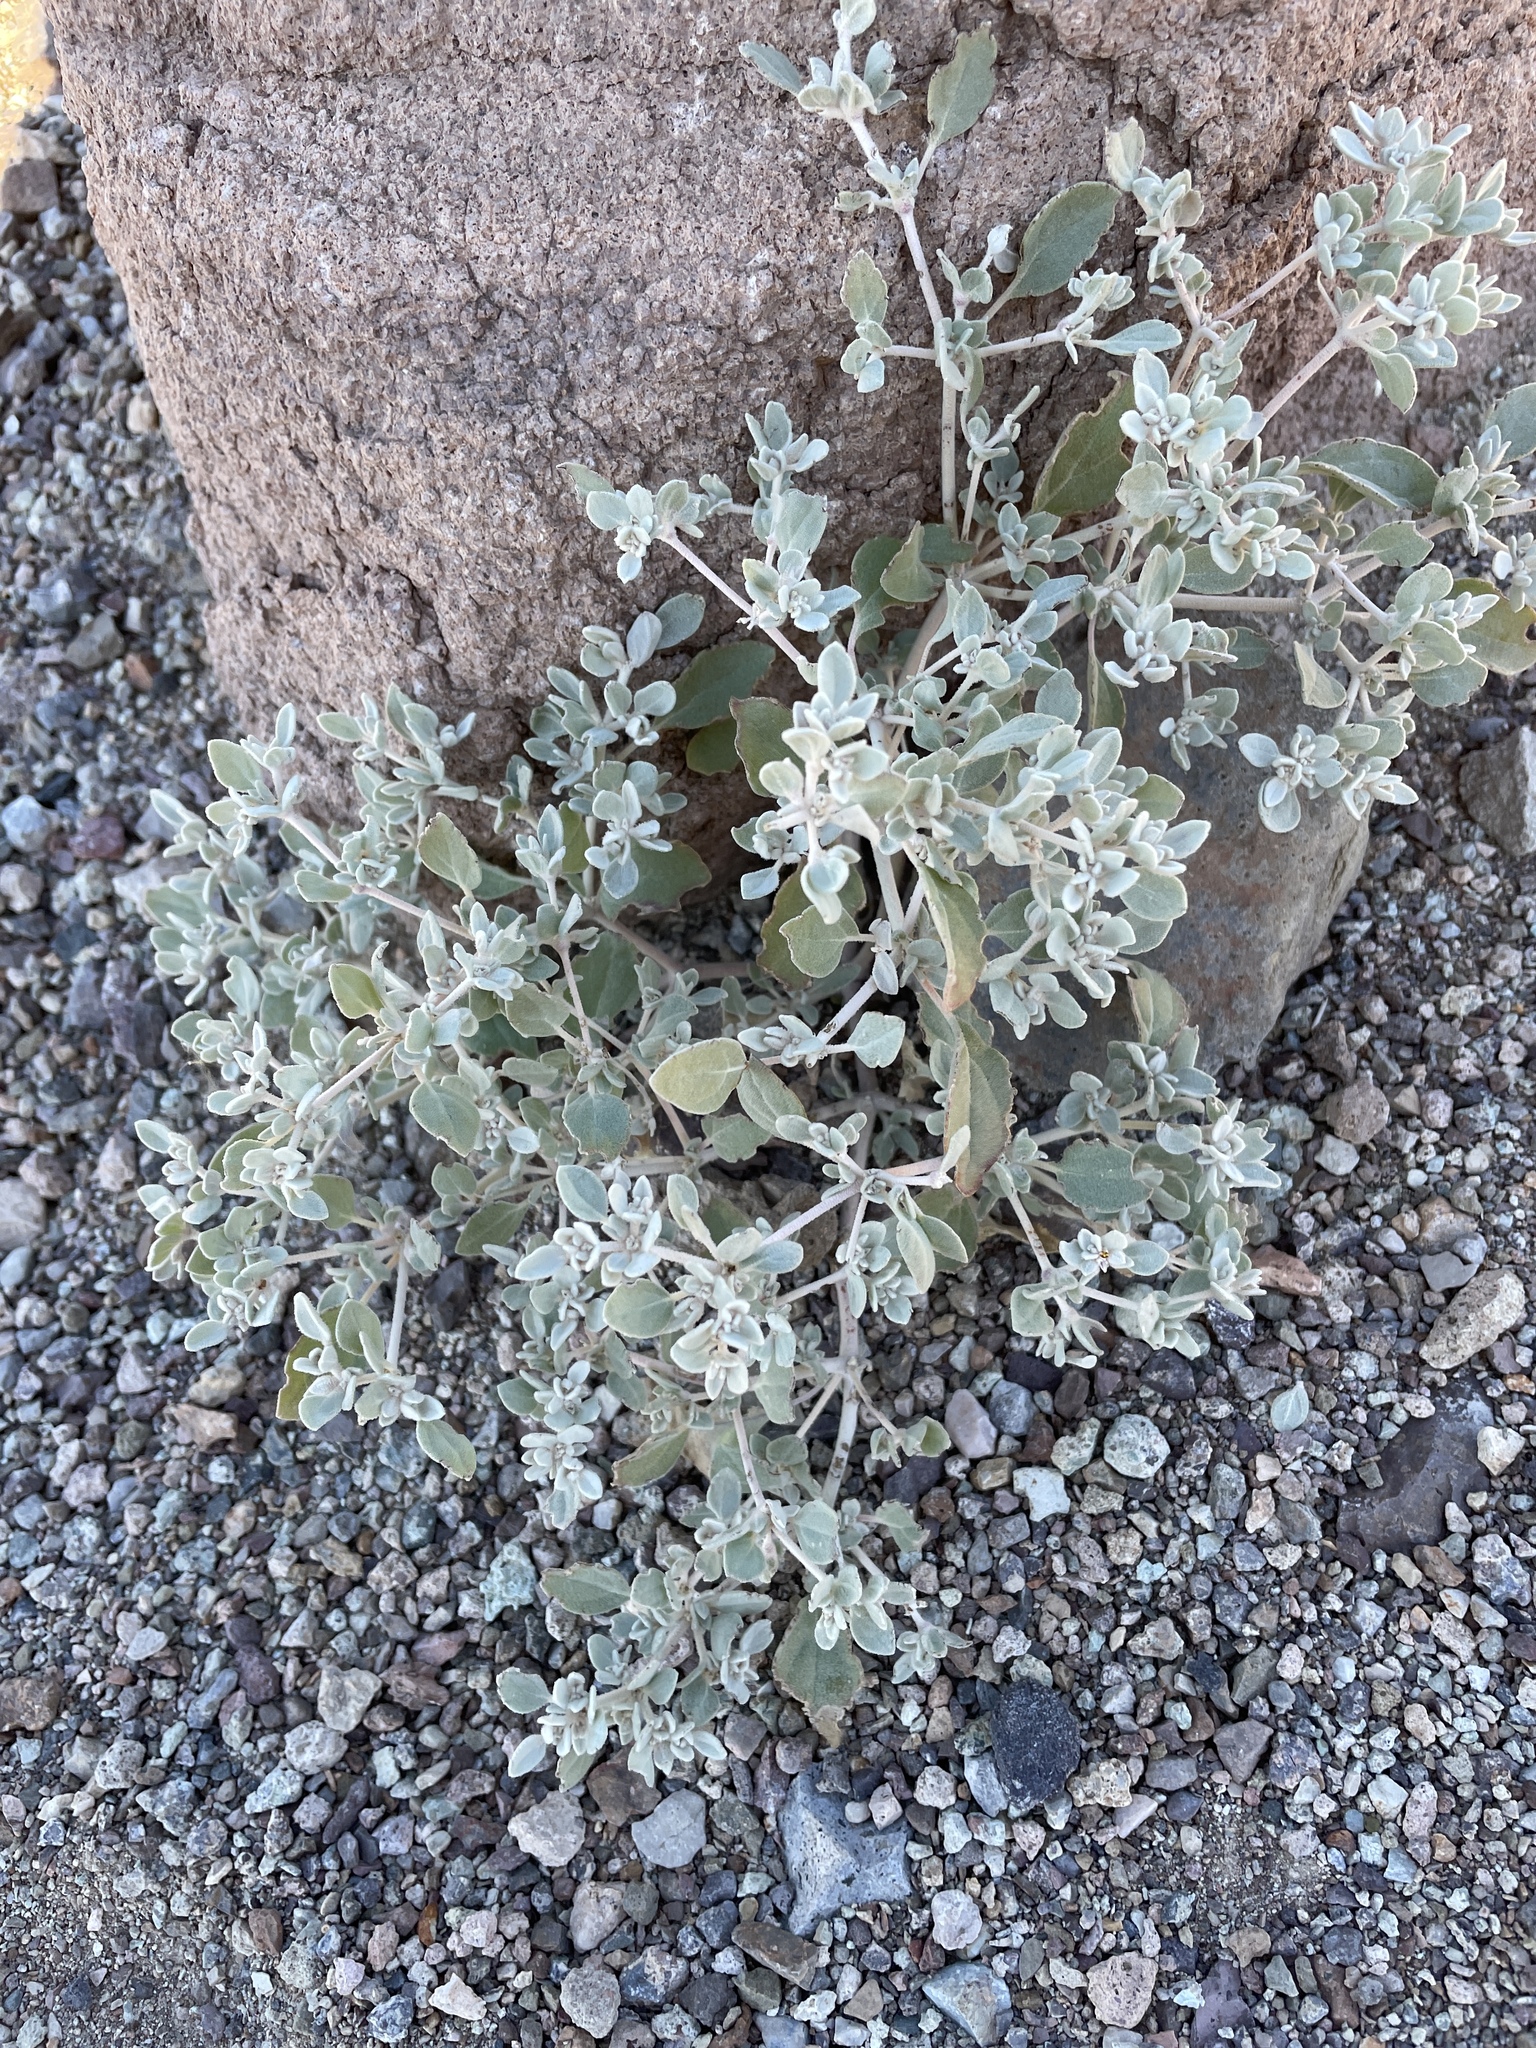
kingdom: Plantae
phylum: Tracheophyta
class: Magnoliopsida
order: Caryophyllales
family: Amaranthaceae
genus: Tidestromia
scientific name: Tidestromia suffruticosa
